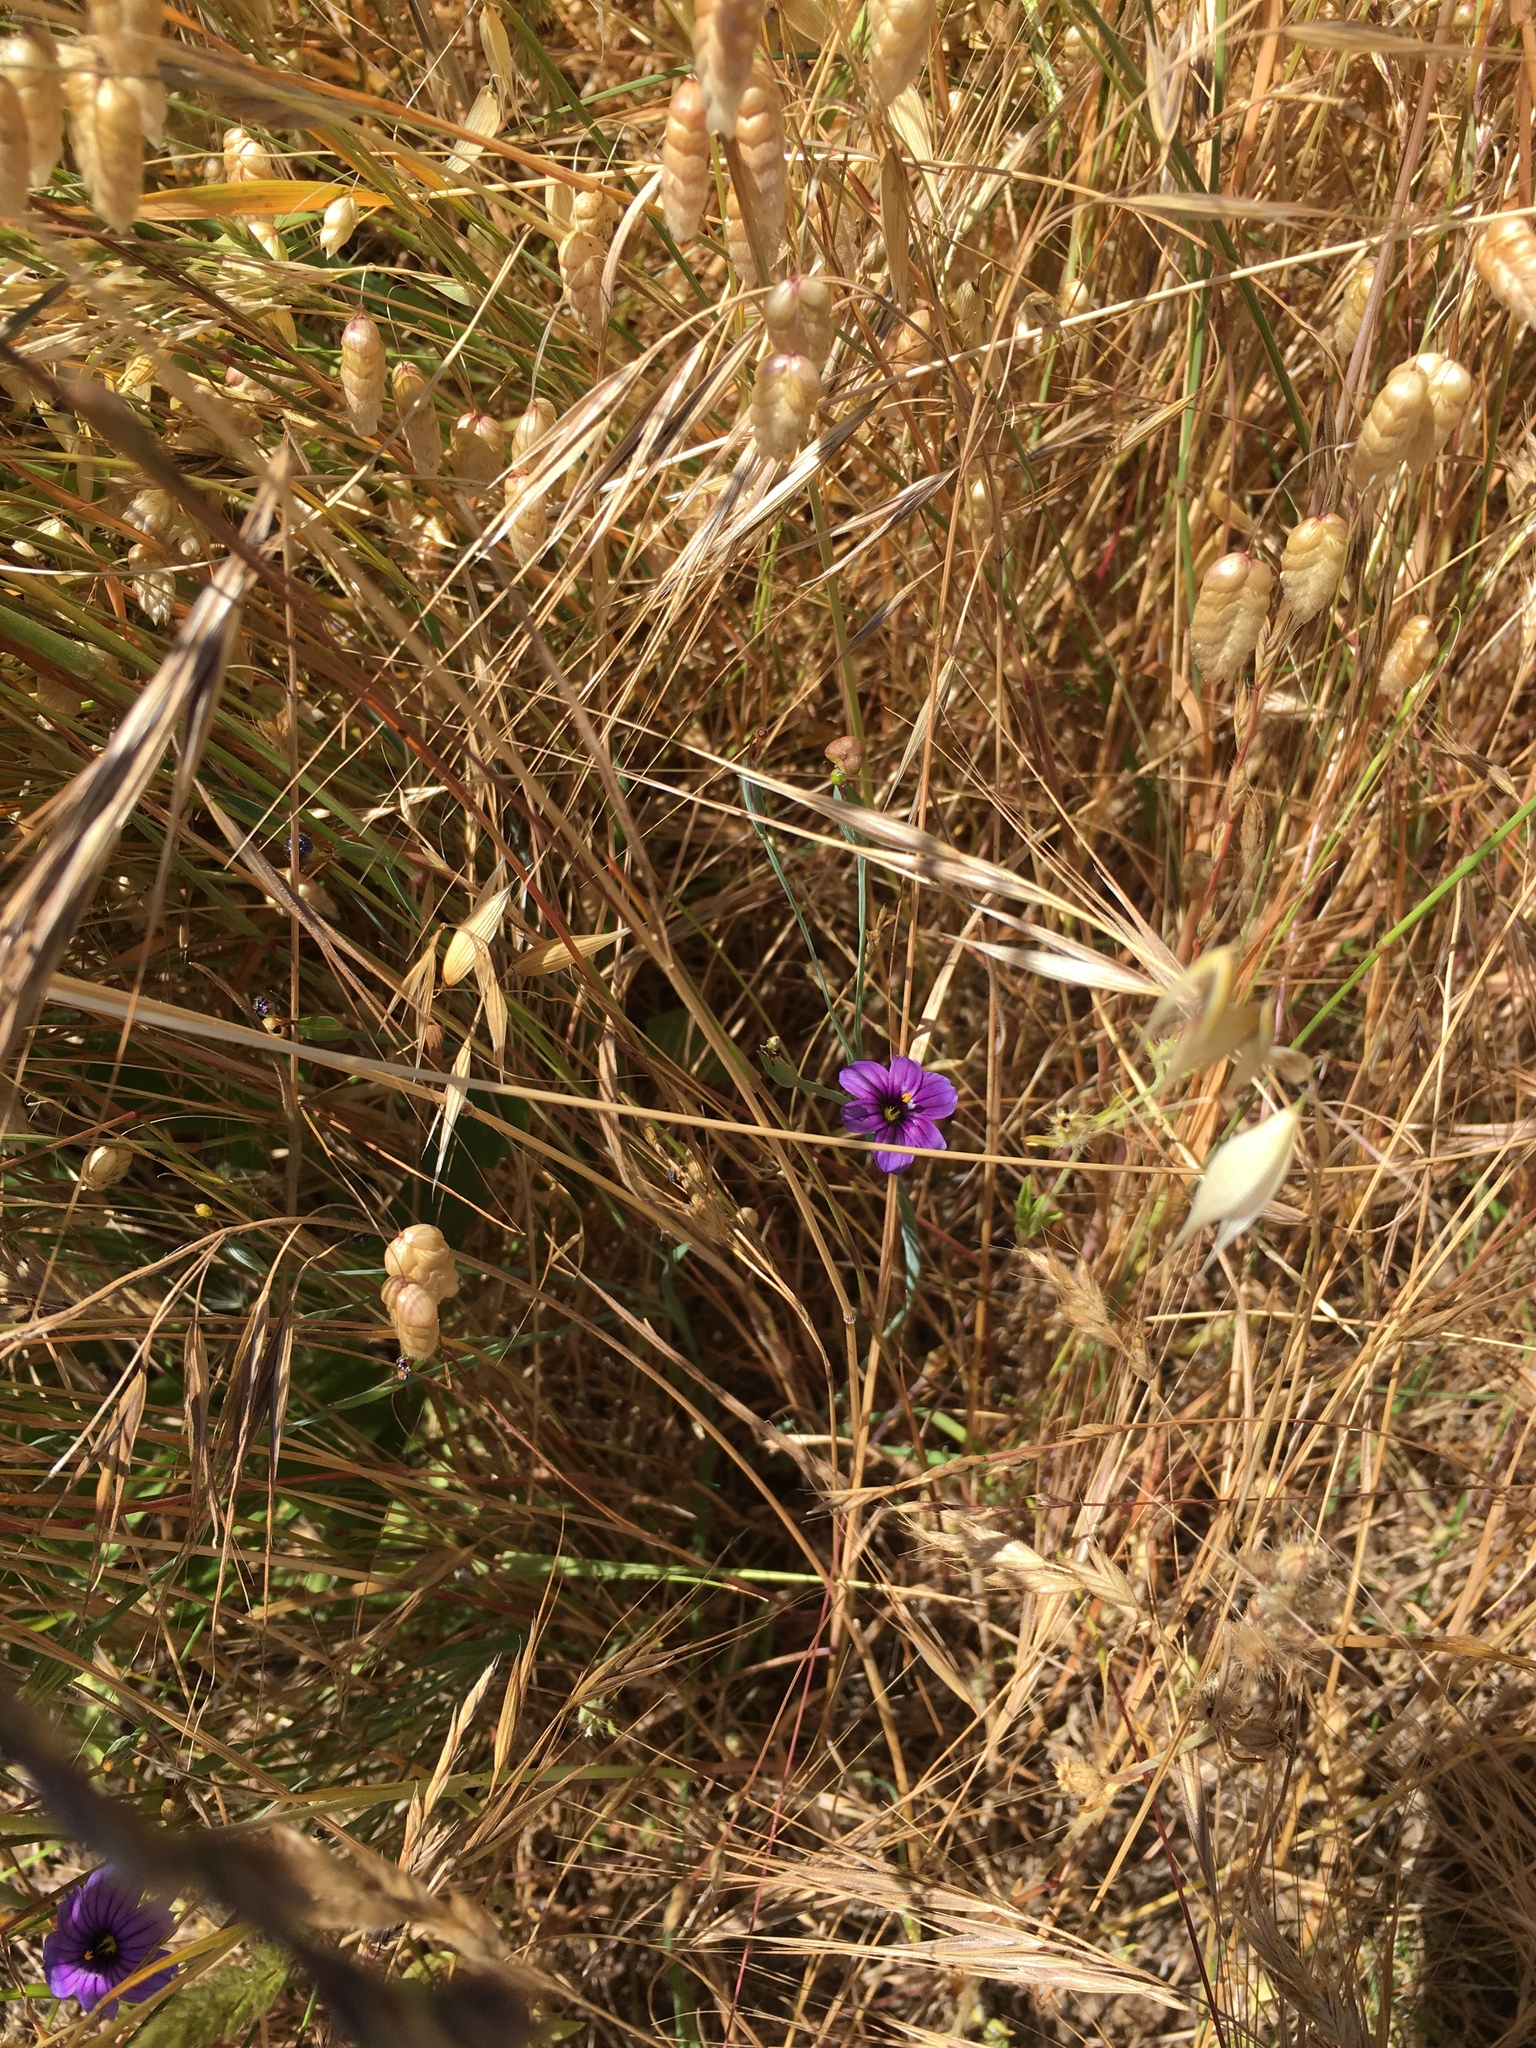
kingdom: Plantae
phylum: Tracheophyta
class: Liliopsida
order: Asparagales
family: Iridaceae
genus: Sisyrinchium
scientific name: Sisyrinchium bellum
